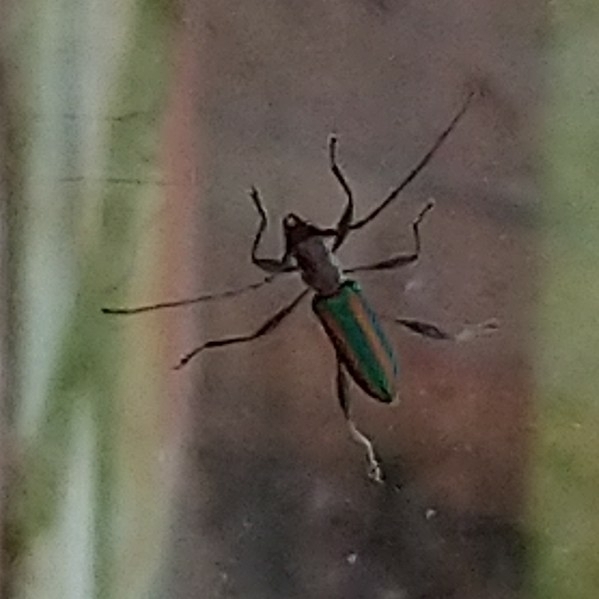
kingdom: Animalia
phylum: Arthropoda
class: Insecta
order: Coleoptera
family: Cerambycidae
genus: Zosterius
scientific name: Zosterius laetus
